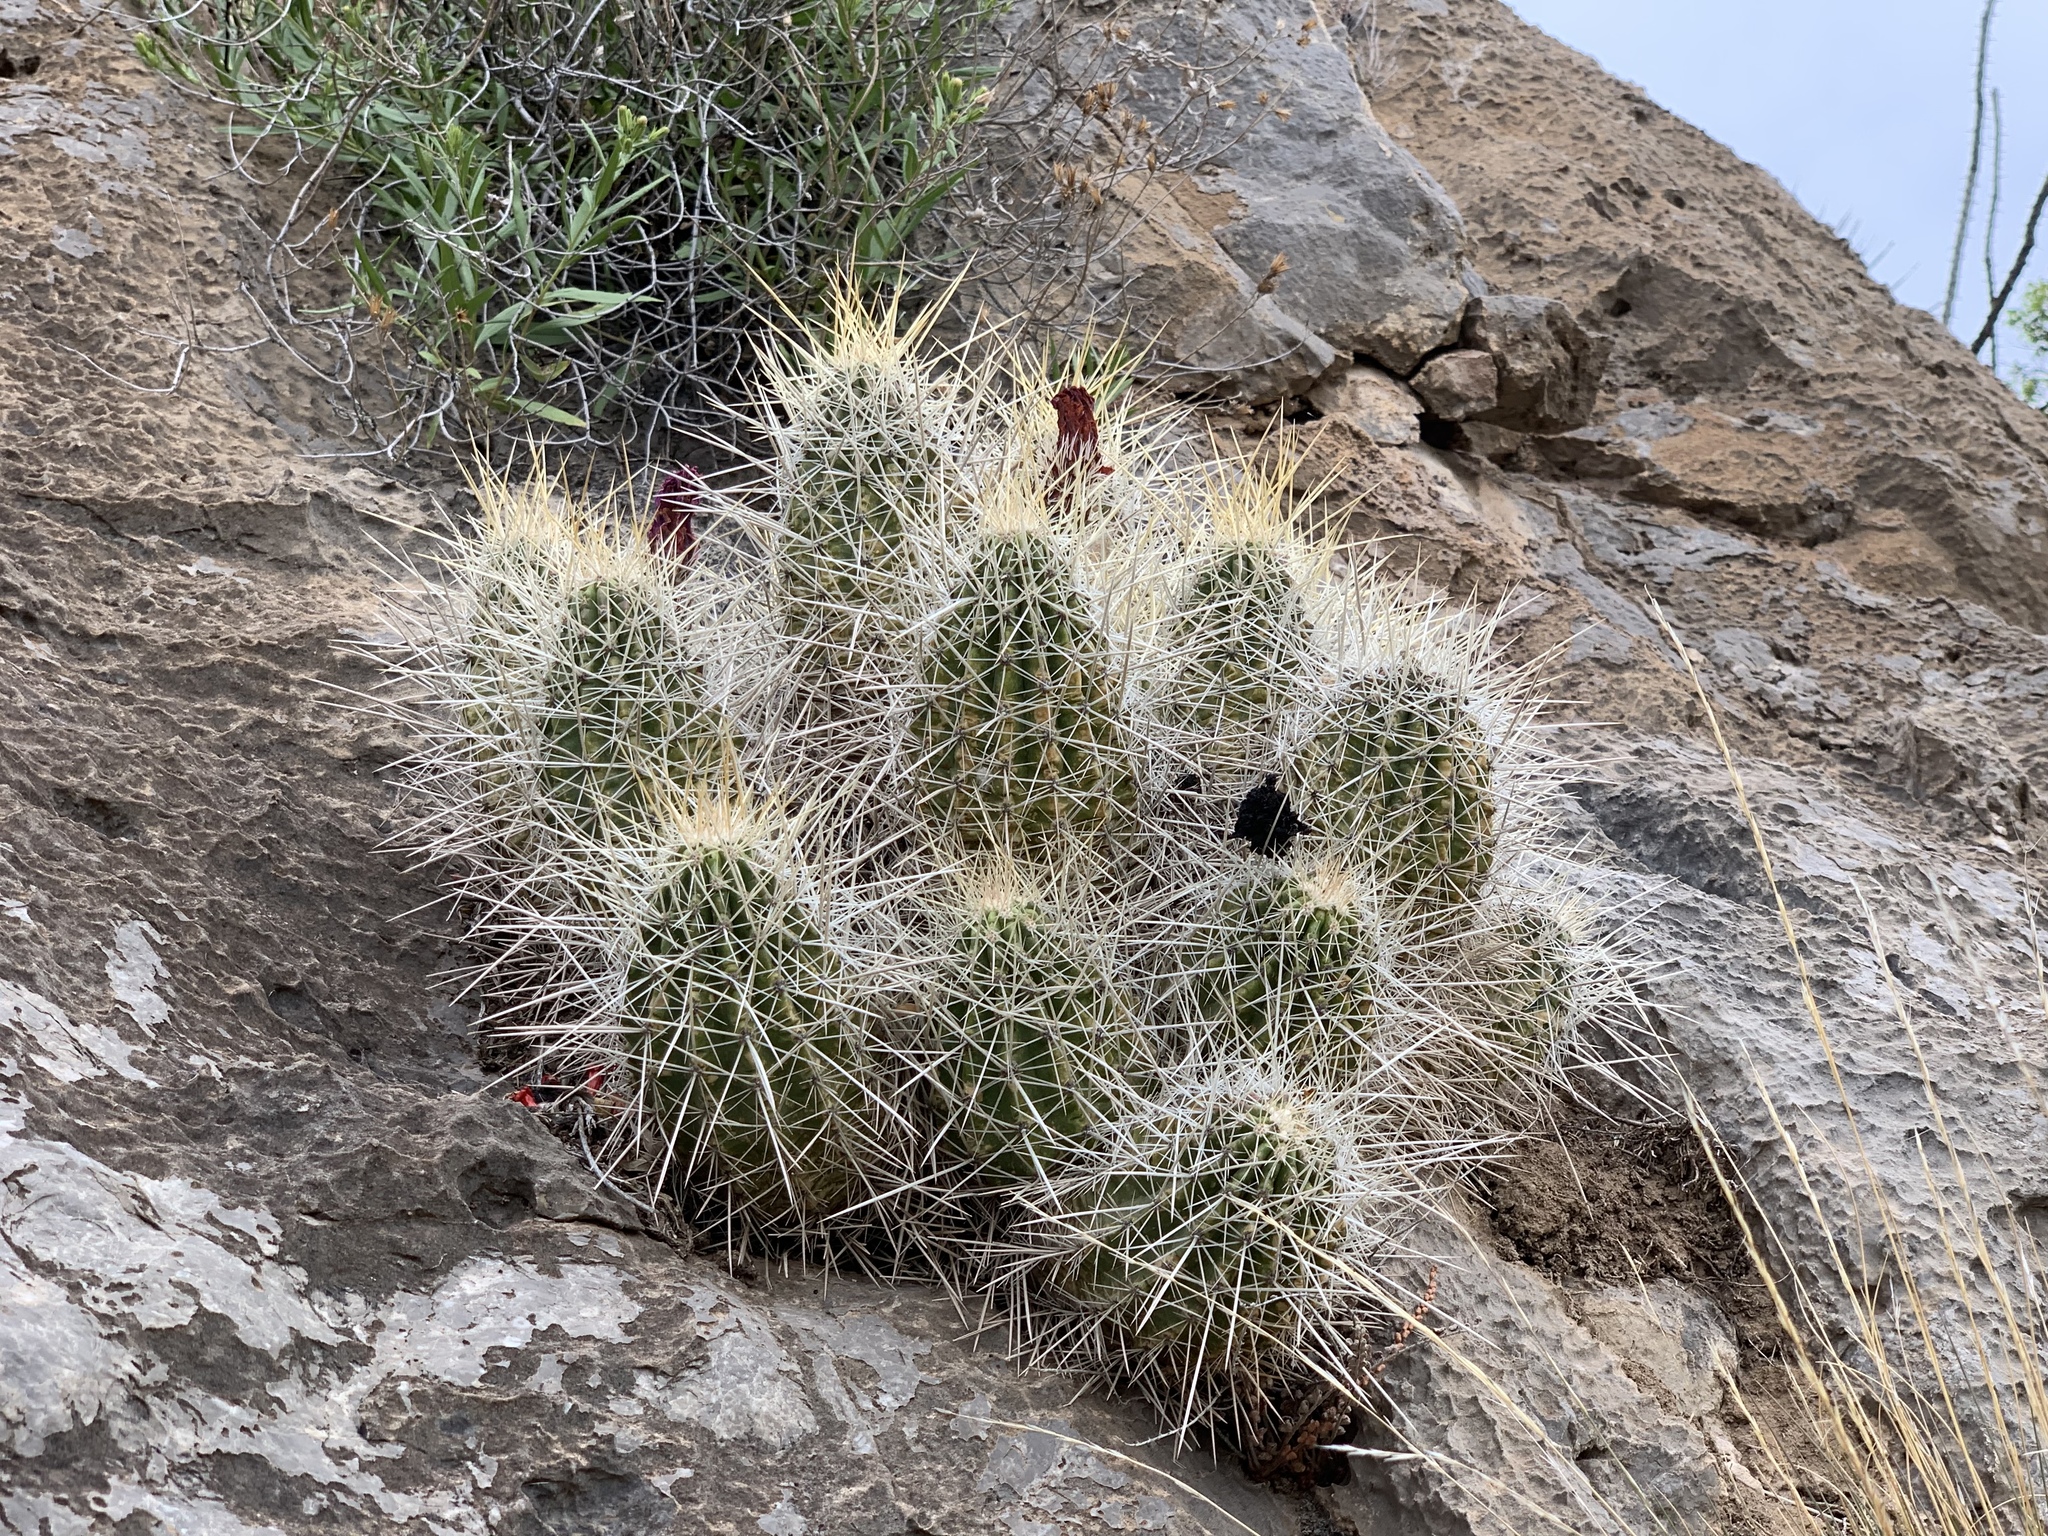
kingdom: Plantae
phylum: Tracheophyta
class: Magnoliopsida
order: Caryophyllales
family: Cactaceae
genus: Echinocereus
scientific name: Echinocereus stramineus
